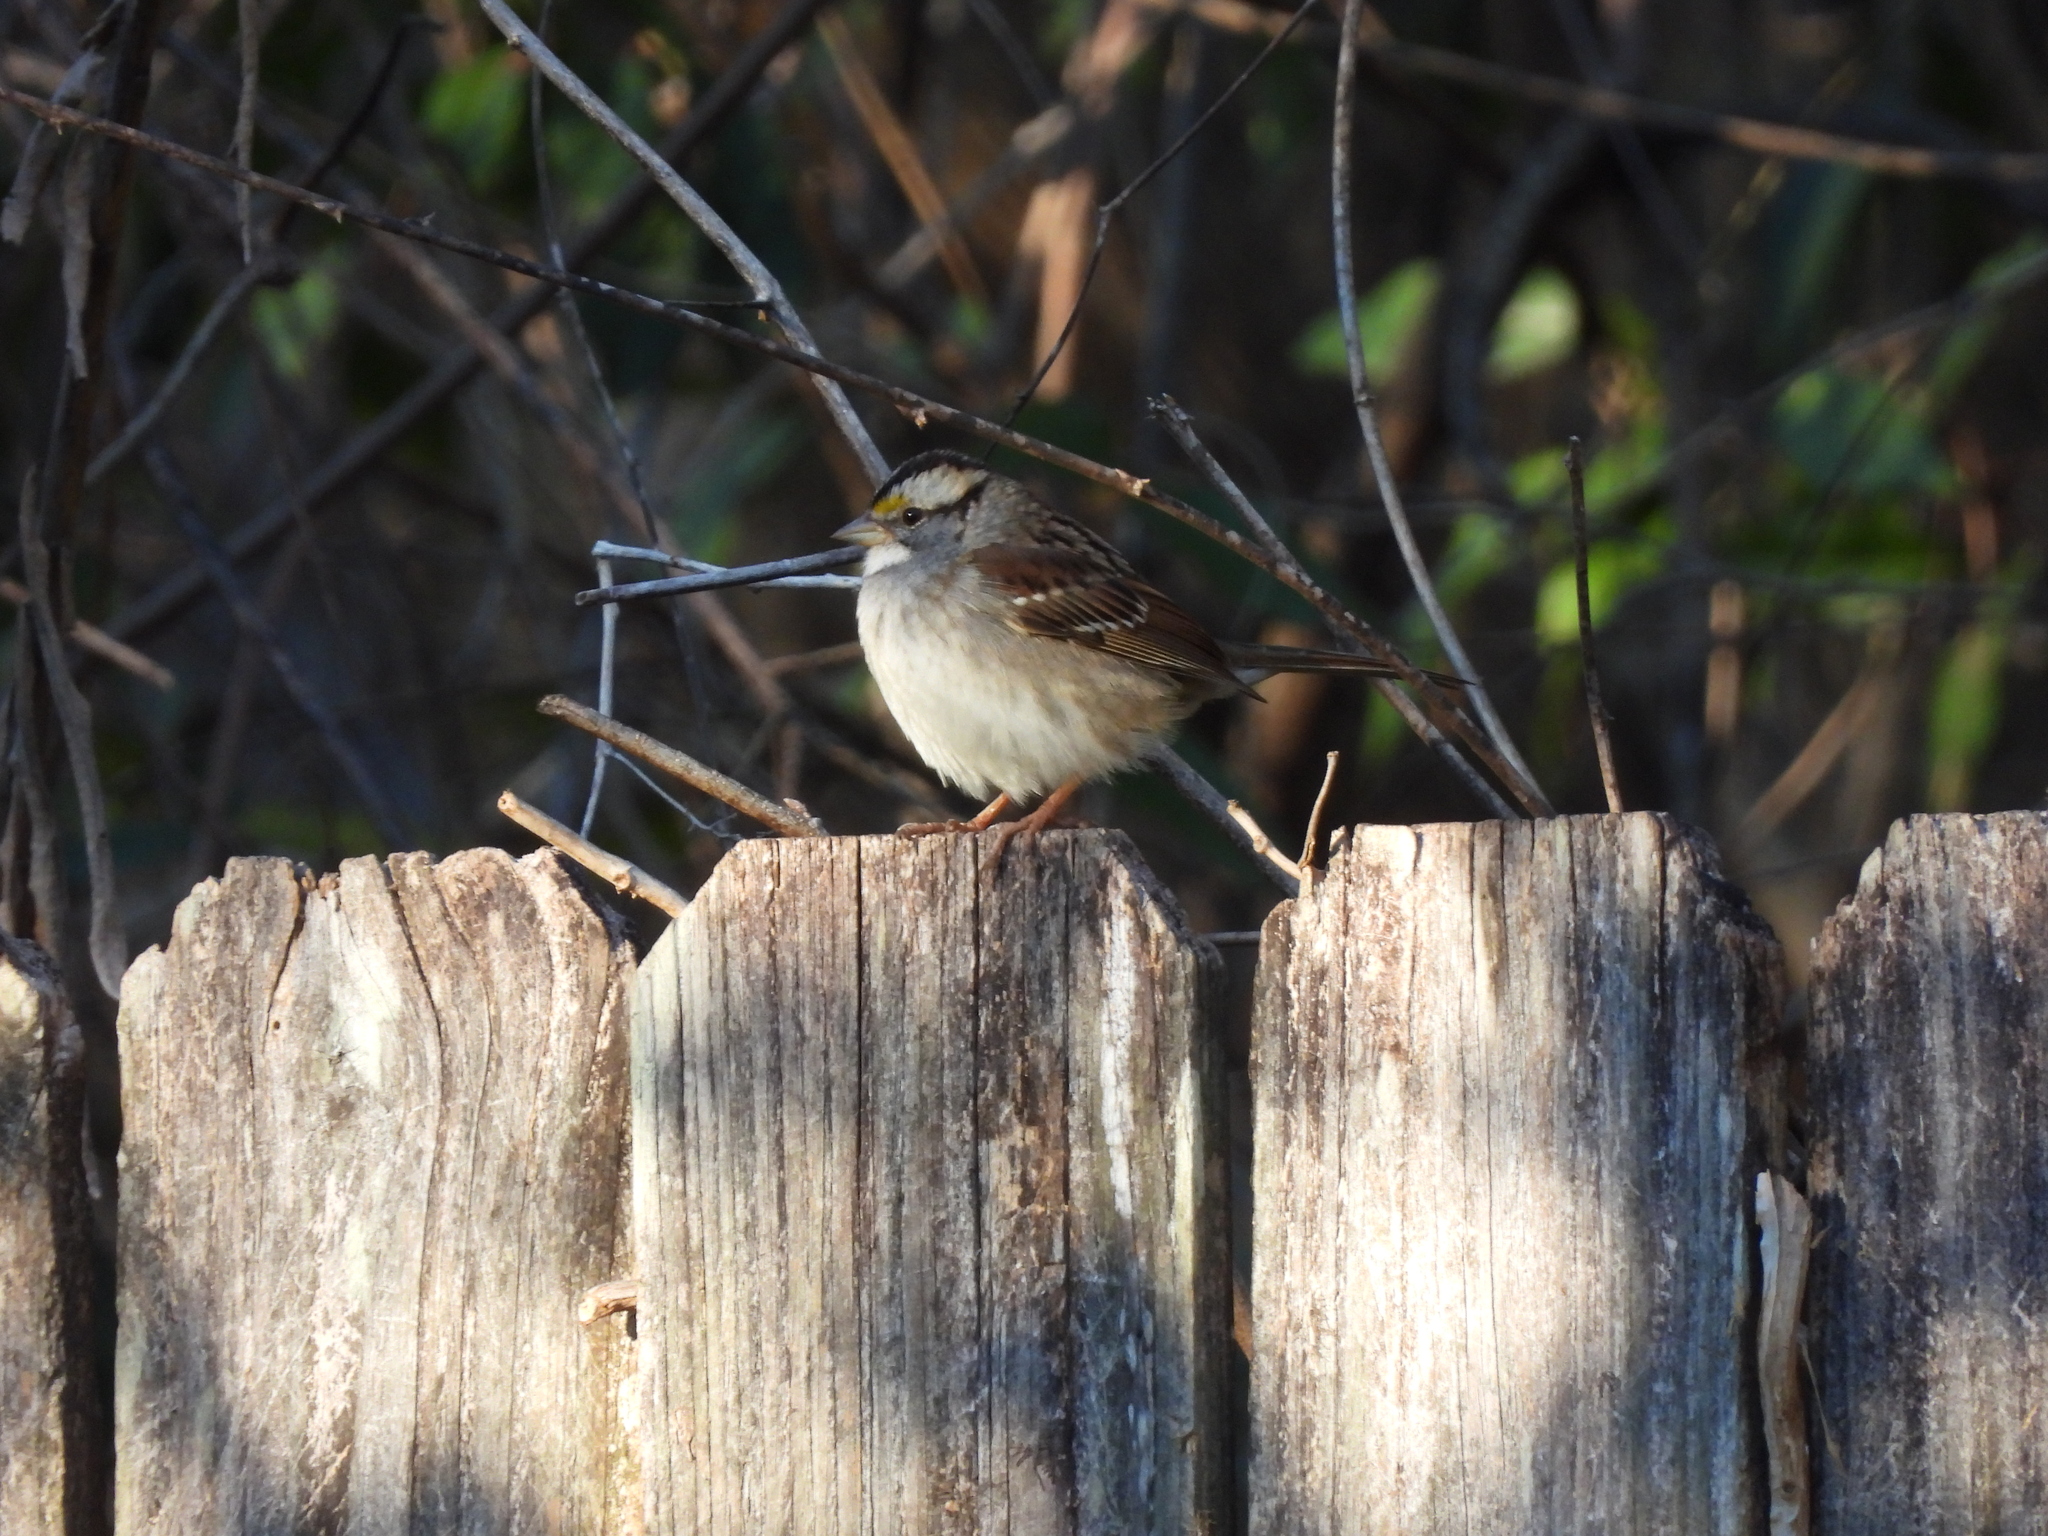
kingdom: Animalia
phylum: Chordata
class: Aves
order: Passeriformes
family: Passerellidae
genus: Zonotrichia
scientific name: Zonotrichia albicollis
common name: White-throated sparrow
